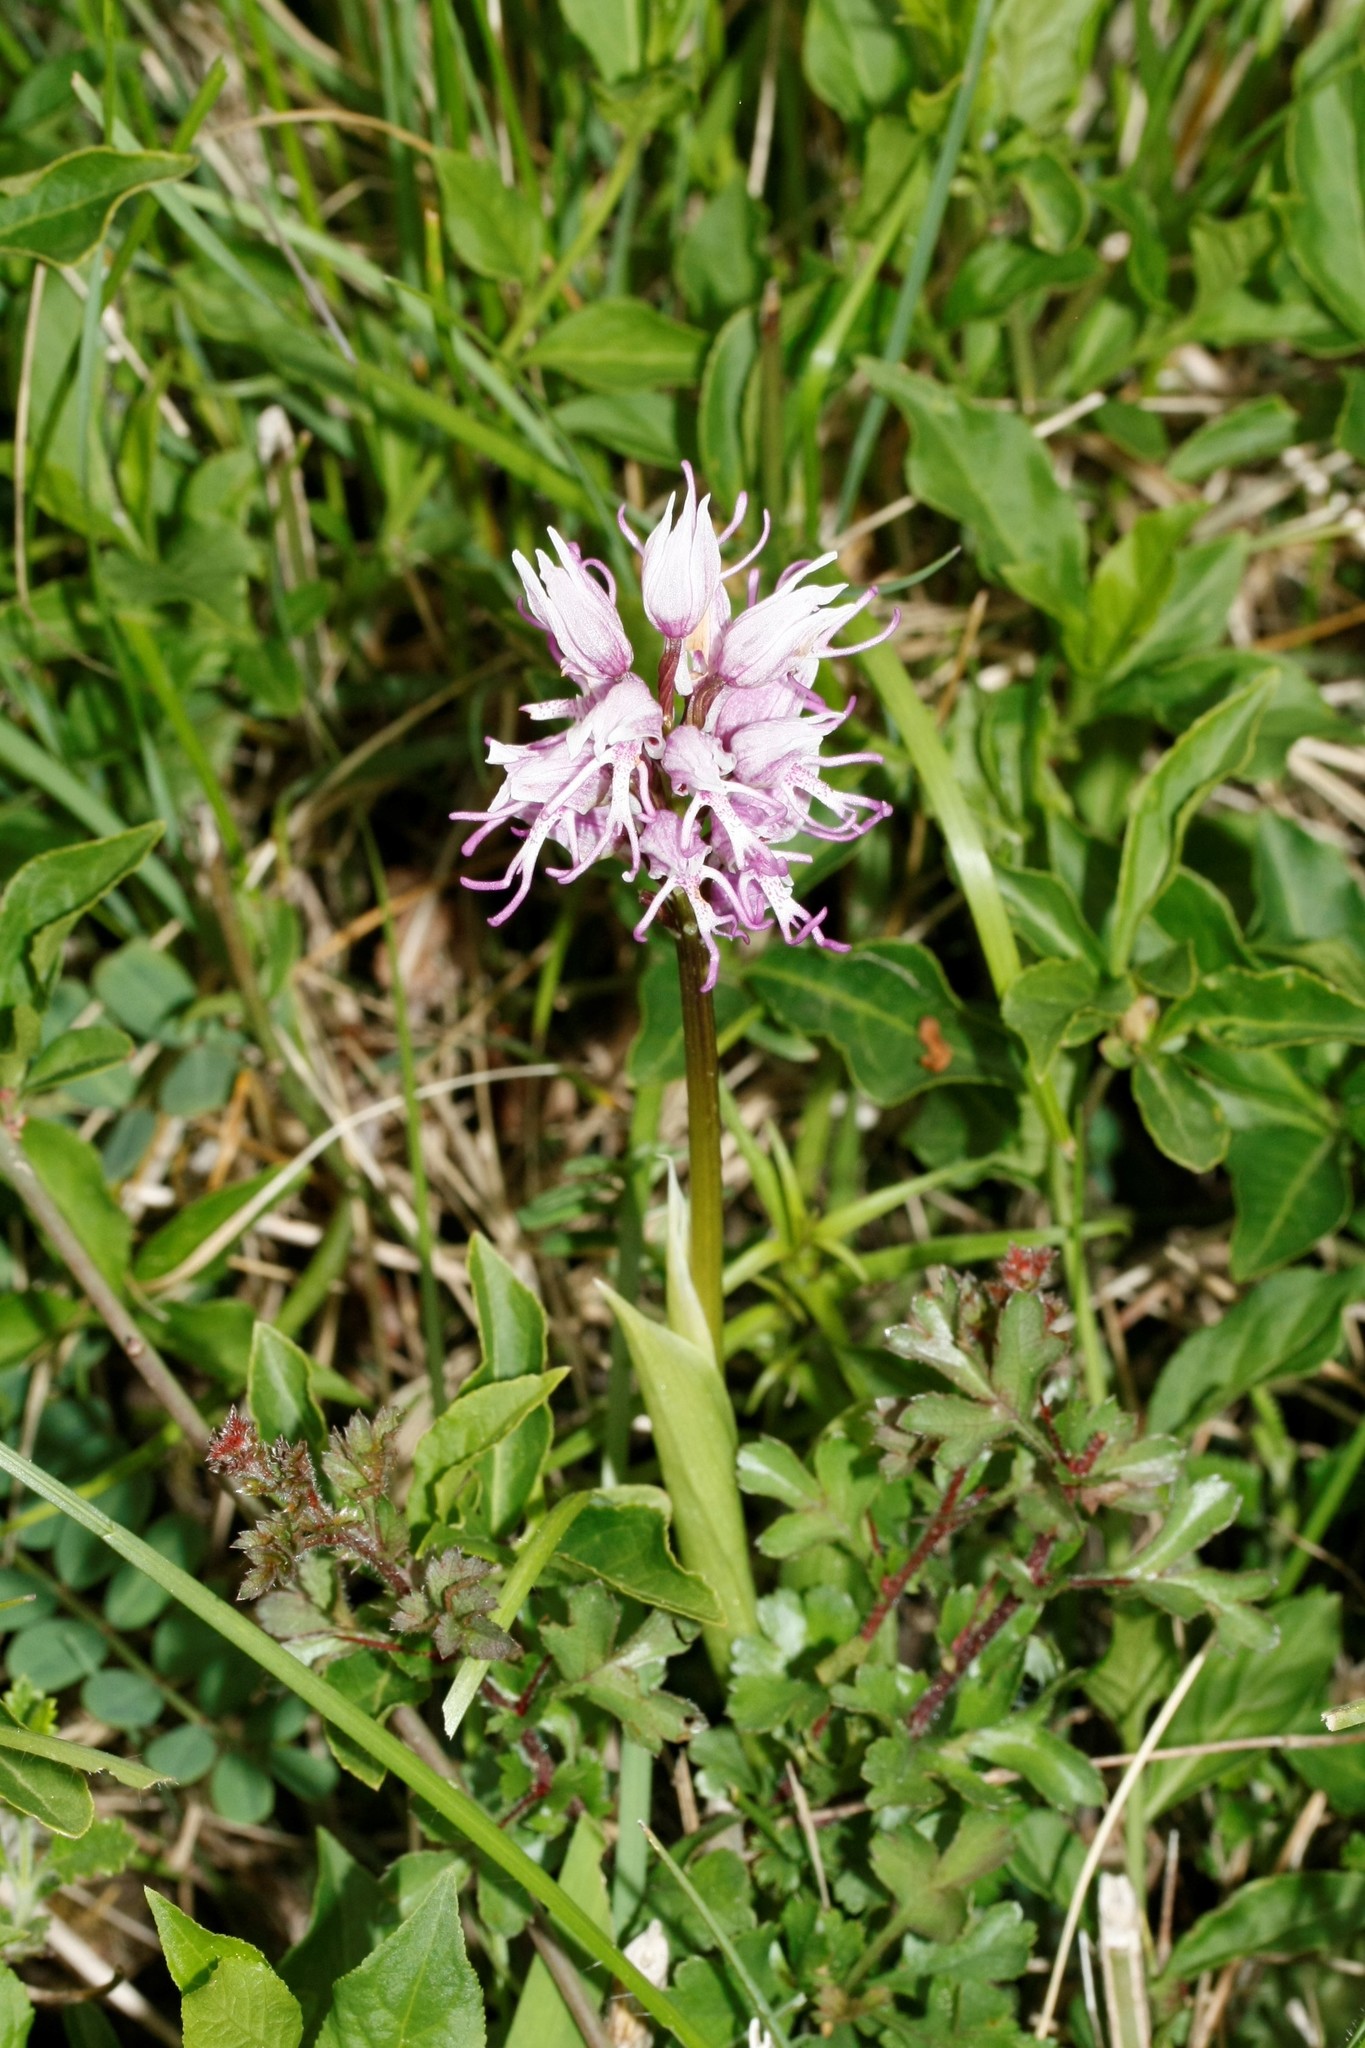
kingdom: Plantae
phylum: Tracheophyta
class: Liliopsida
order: Asparagales
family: Orchidaceae
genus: Orchis
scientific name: Orchis simia
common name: Monkey orchid
